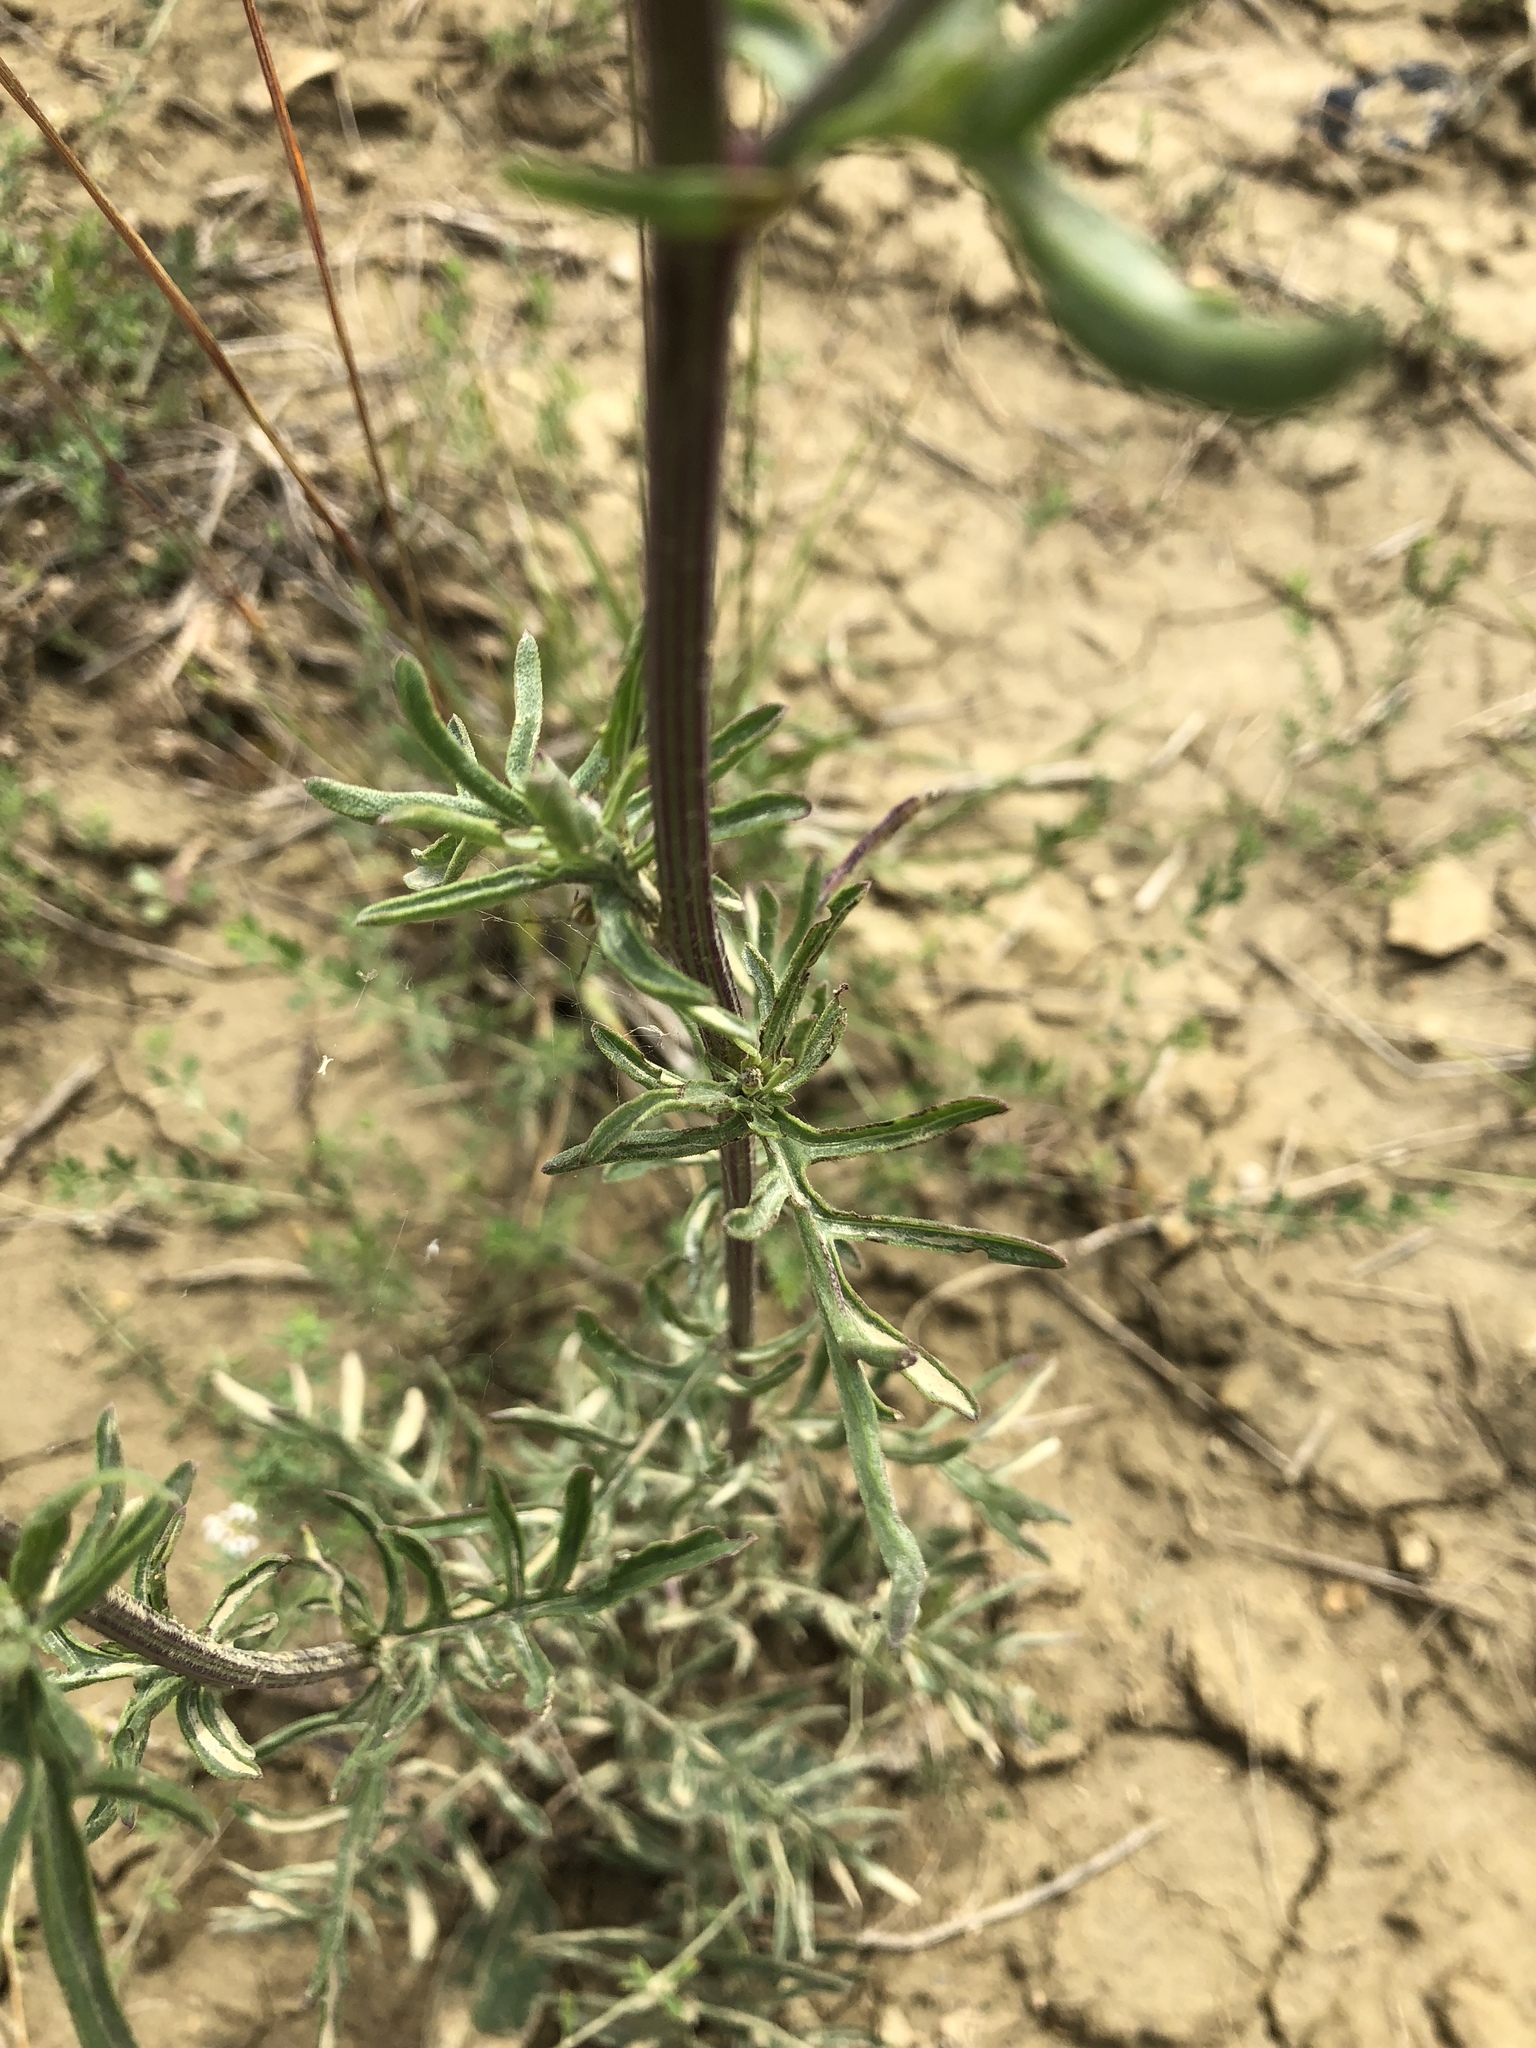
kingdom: Plantae
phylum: Tracheophyta
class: Magnoliopsida
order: Asterales
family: Asteraceae
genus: Centaurea
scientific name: Centaurea scabiosa
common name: Greater knapweed
